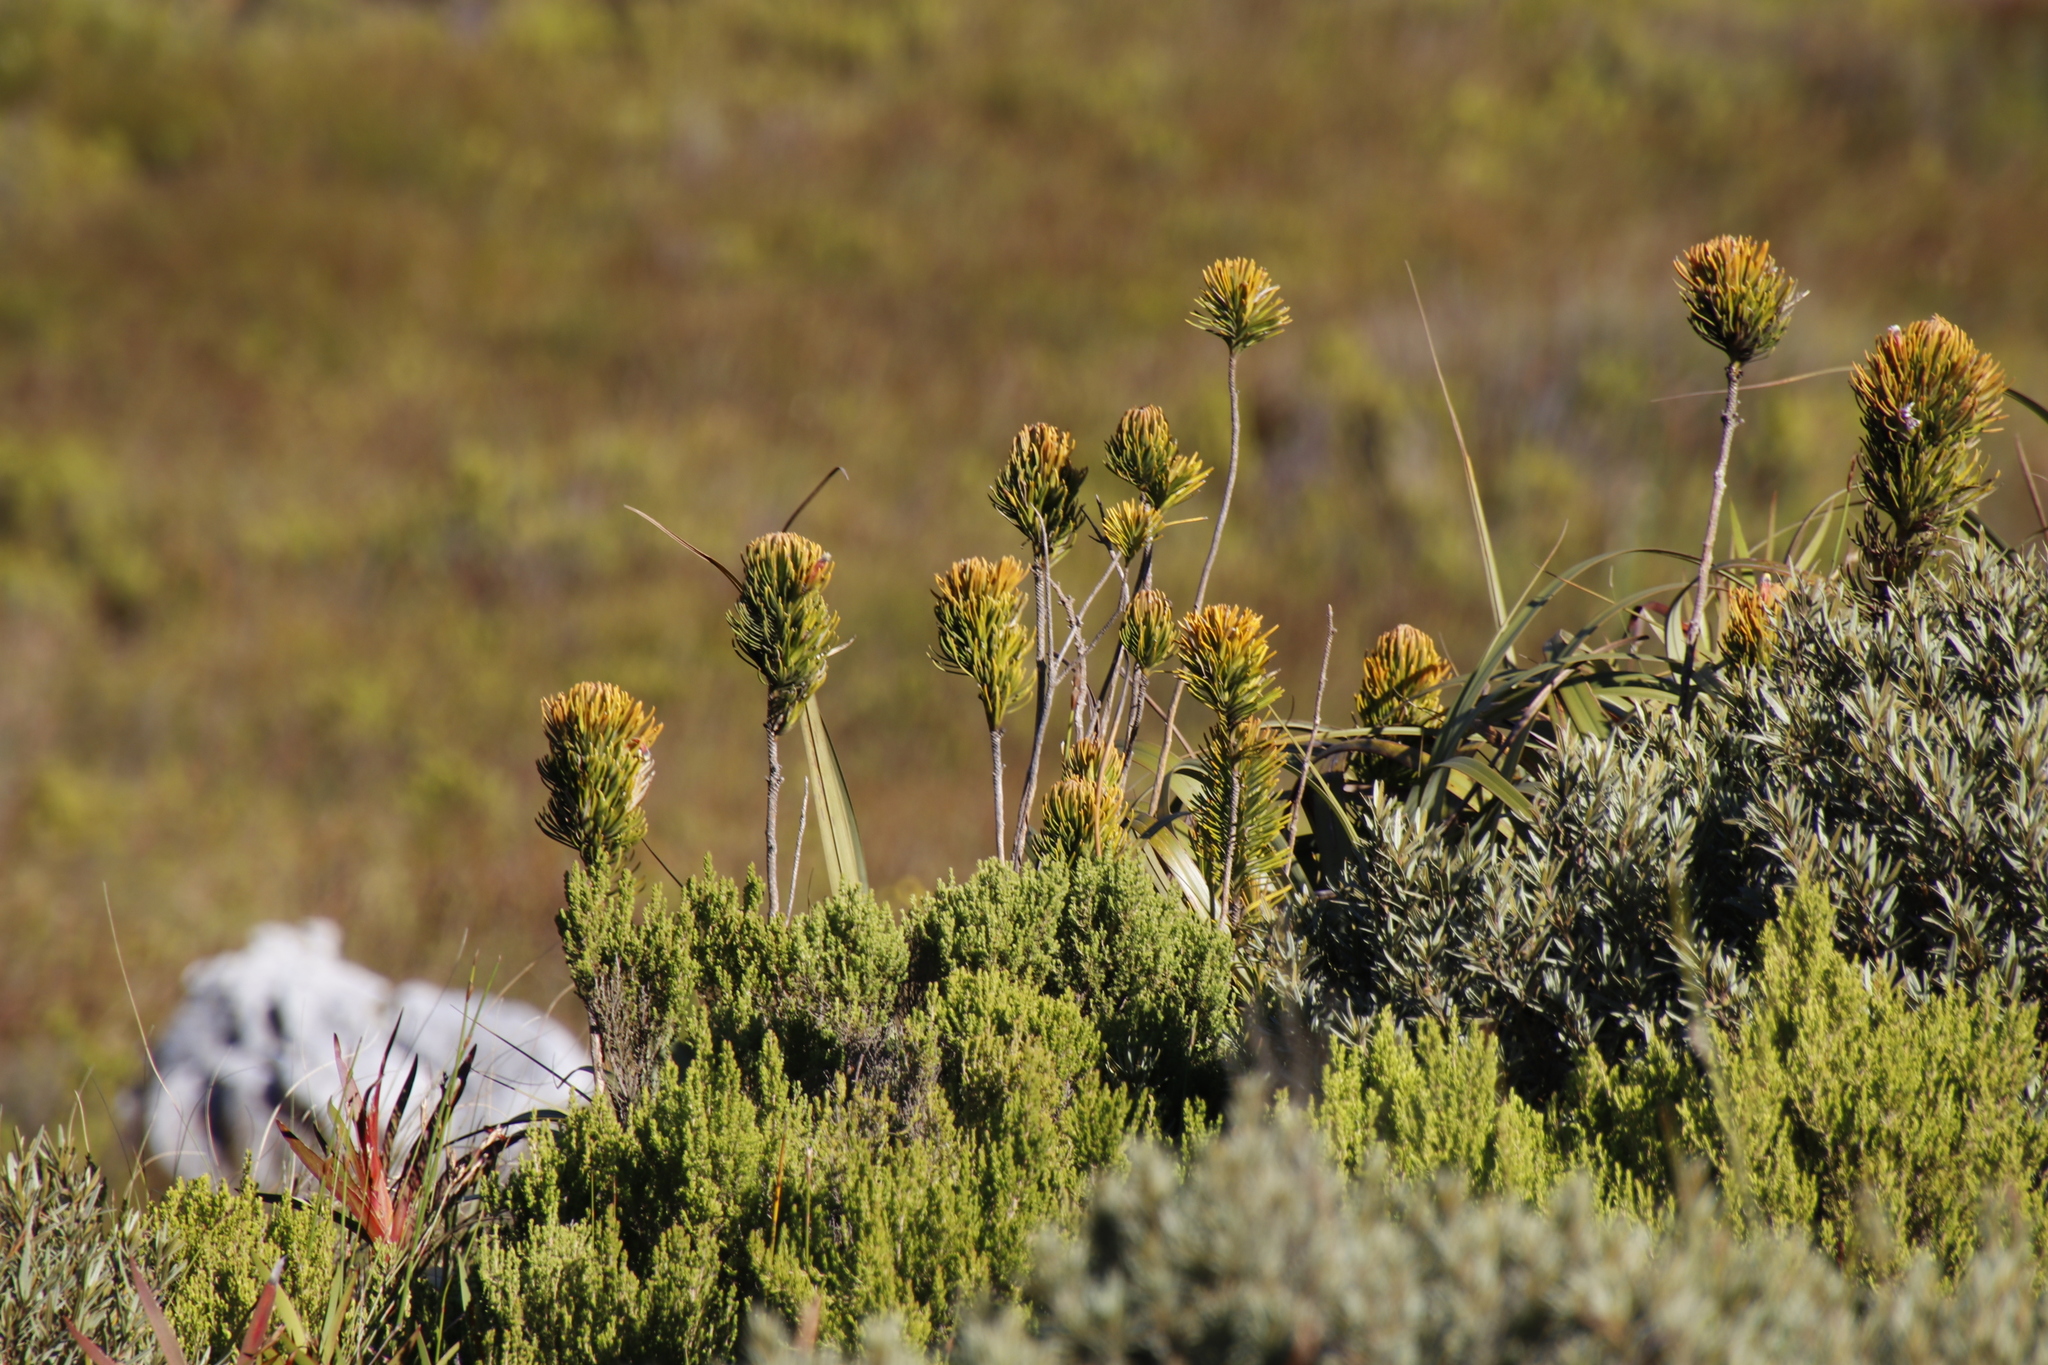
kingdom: Plantae
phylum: Tracheophyta
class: Magnoliopsida
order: Lamiales
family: Stilbaceae
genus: Retzia
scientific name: Retzia capensis
